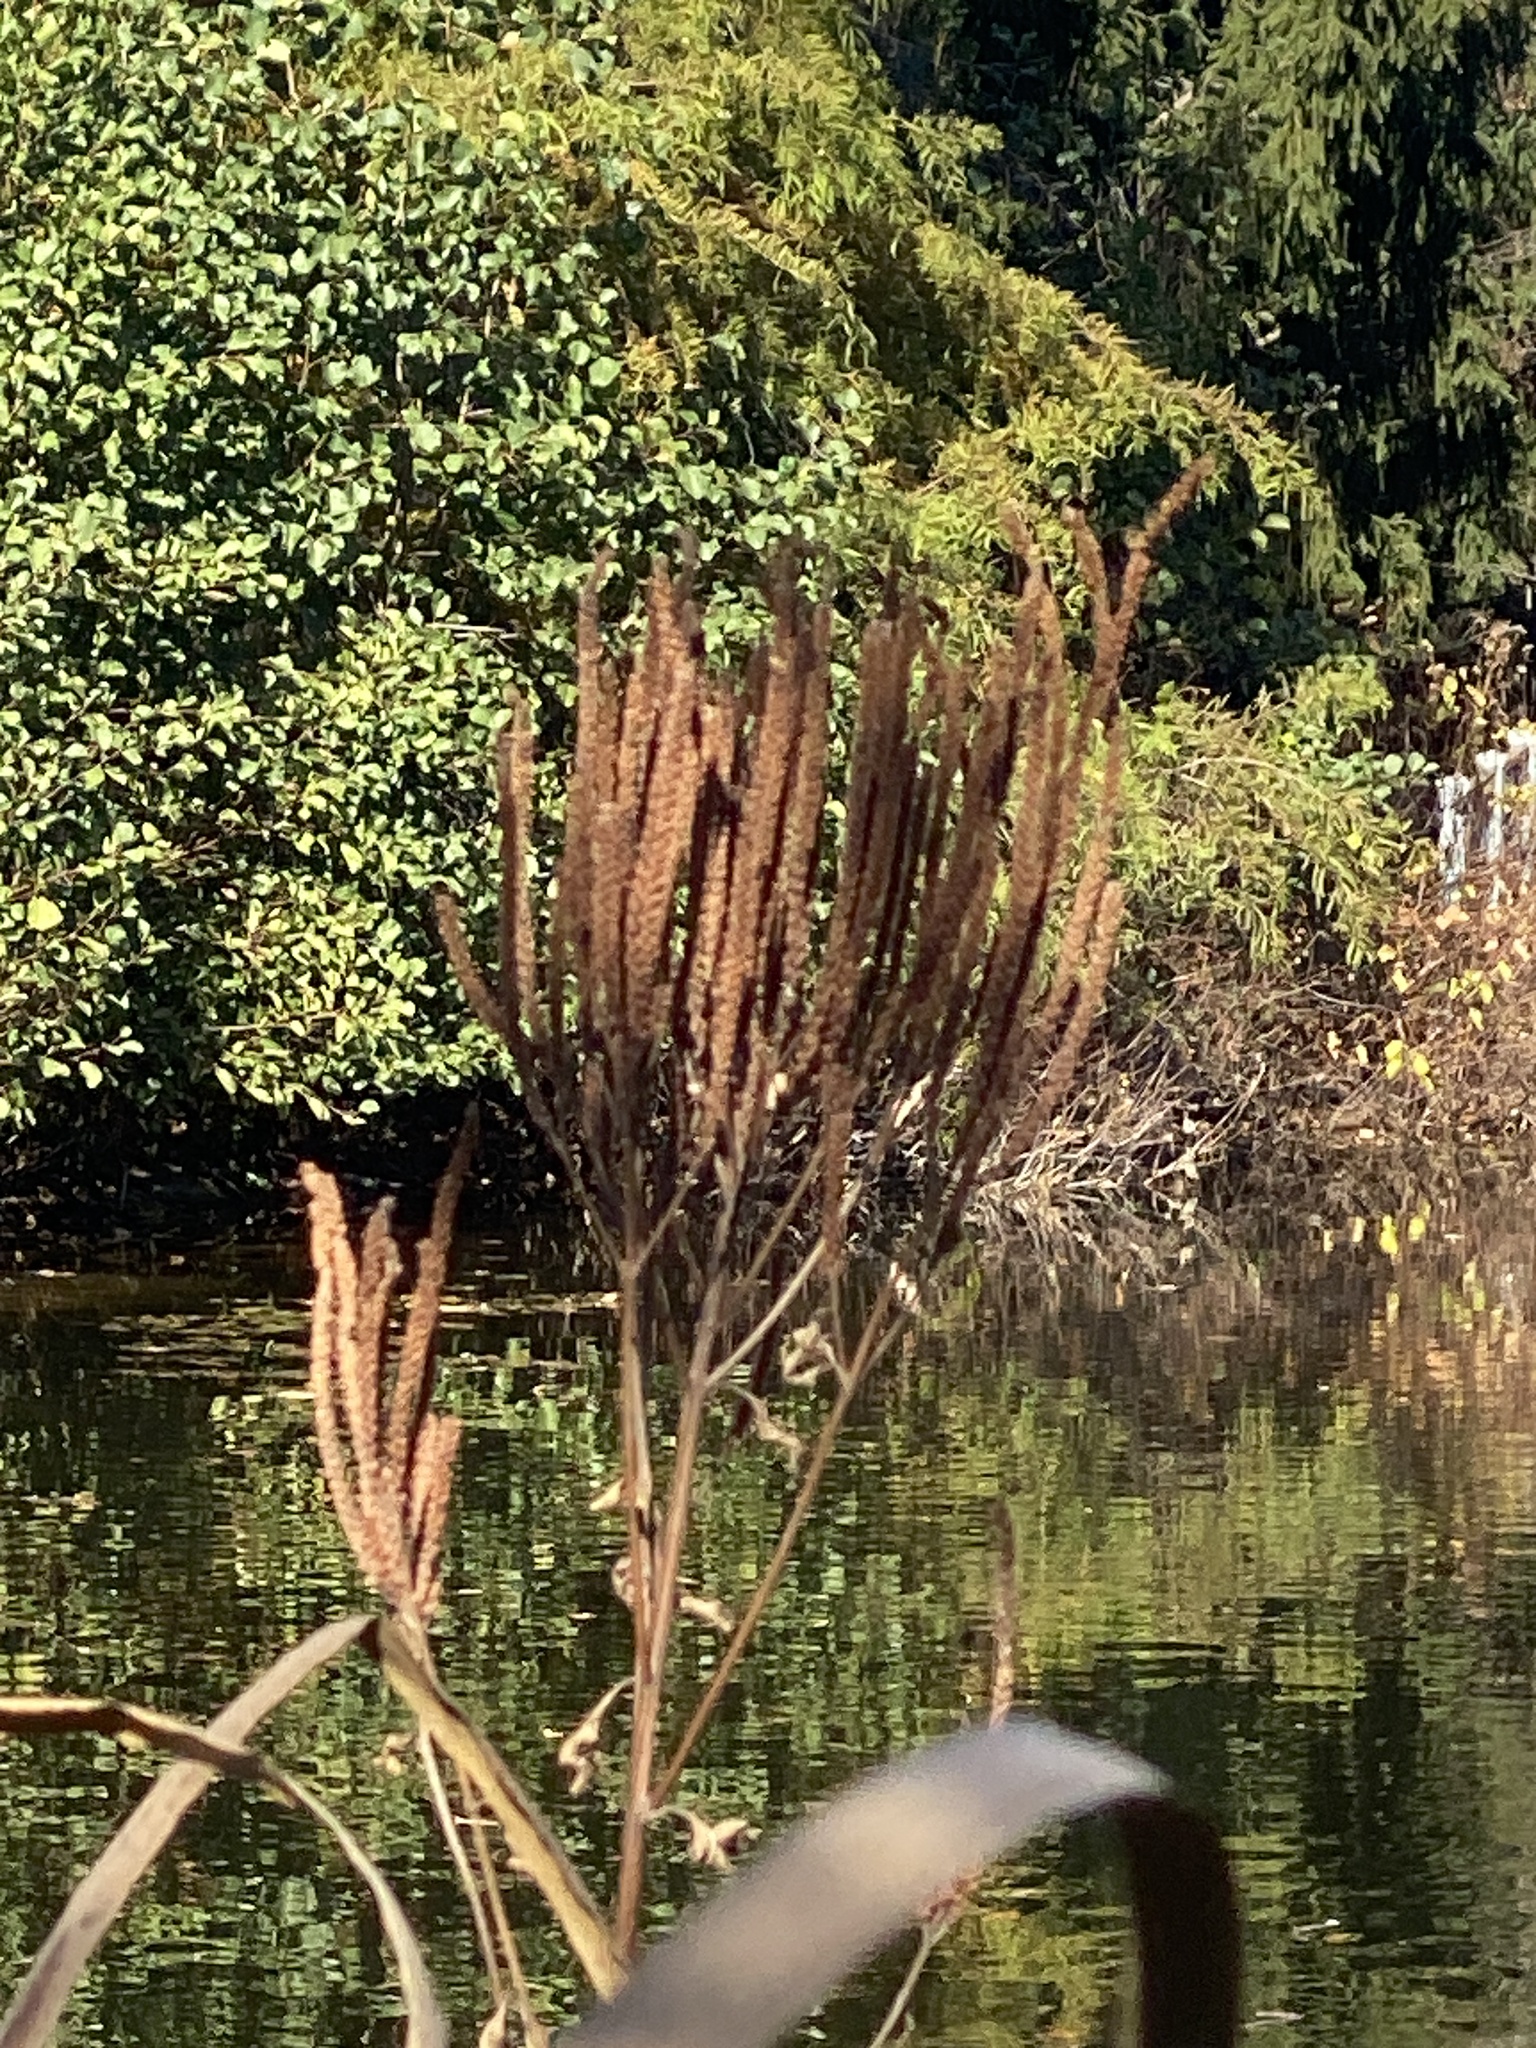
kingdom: Plantae
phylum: Tracheophyta
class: Magnoliopsida
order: Lamiales
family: Verbenaceae
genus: Verbena
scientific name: Verbena hastata
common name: American blue vervain
